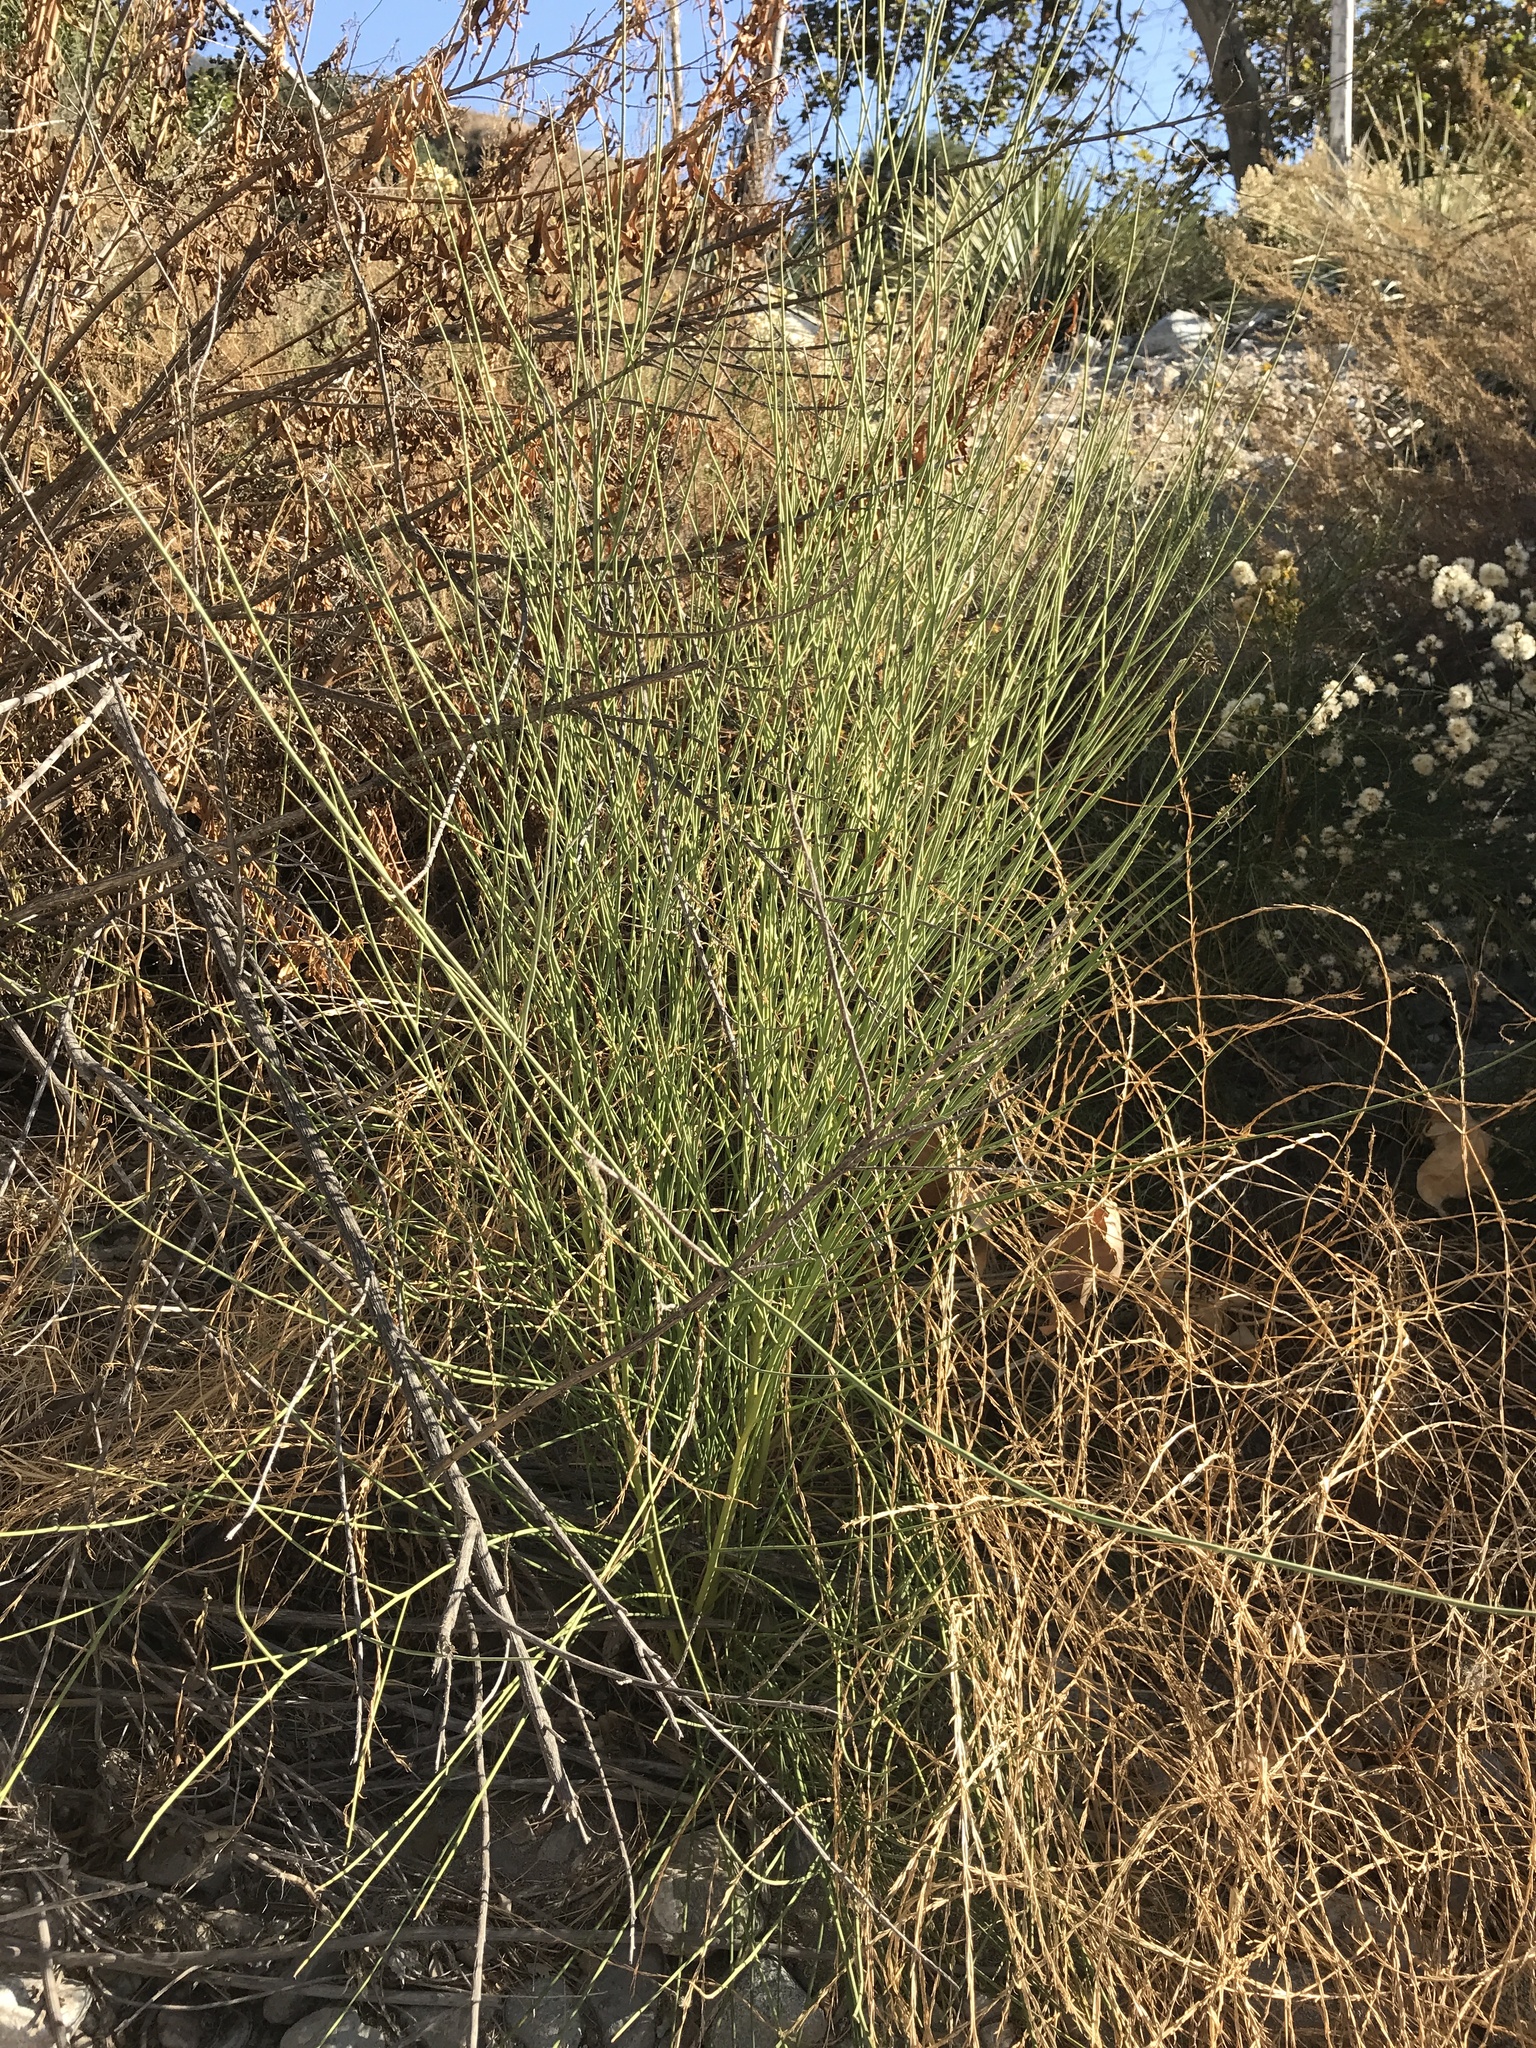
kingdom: Plantae
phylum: Tracheophyta
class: Magnoliopsida
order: Fabales
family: Fabaceae
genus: Spartium
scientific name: Spartium junceum
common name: Spanish broom
